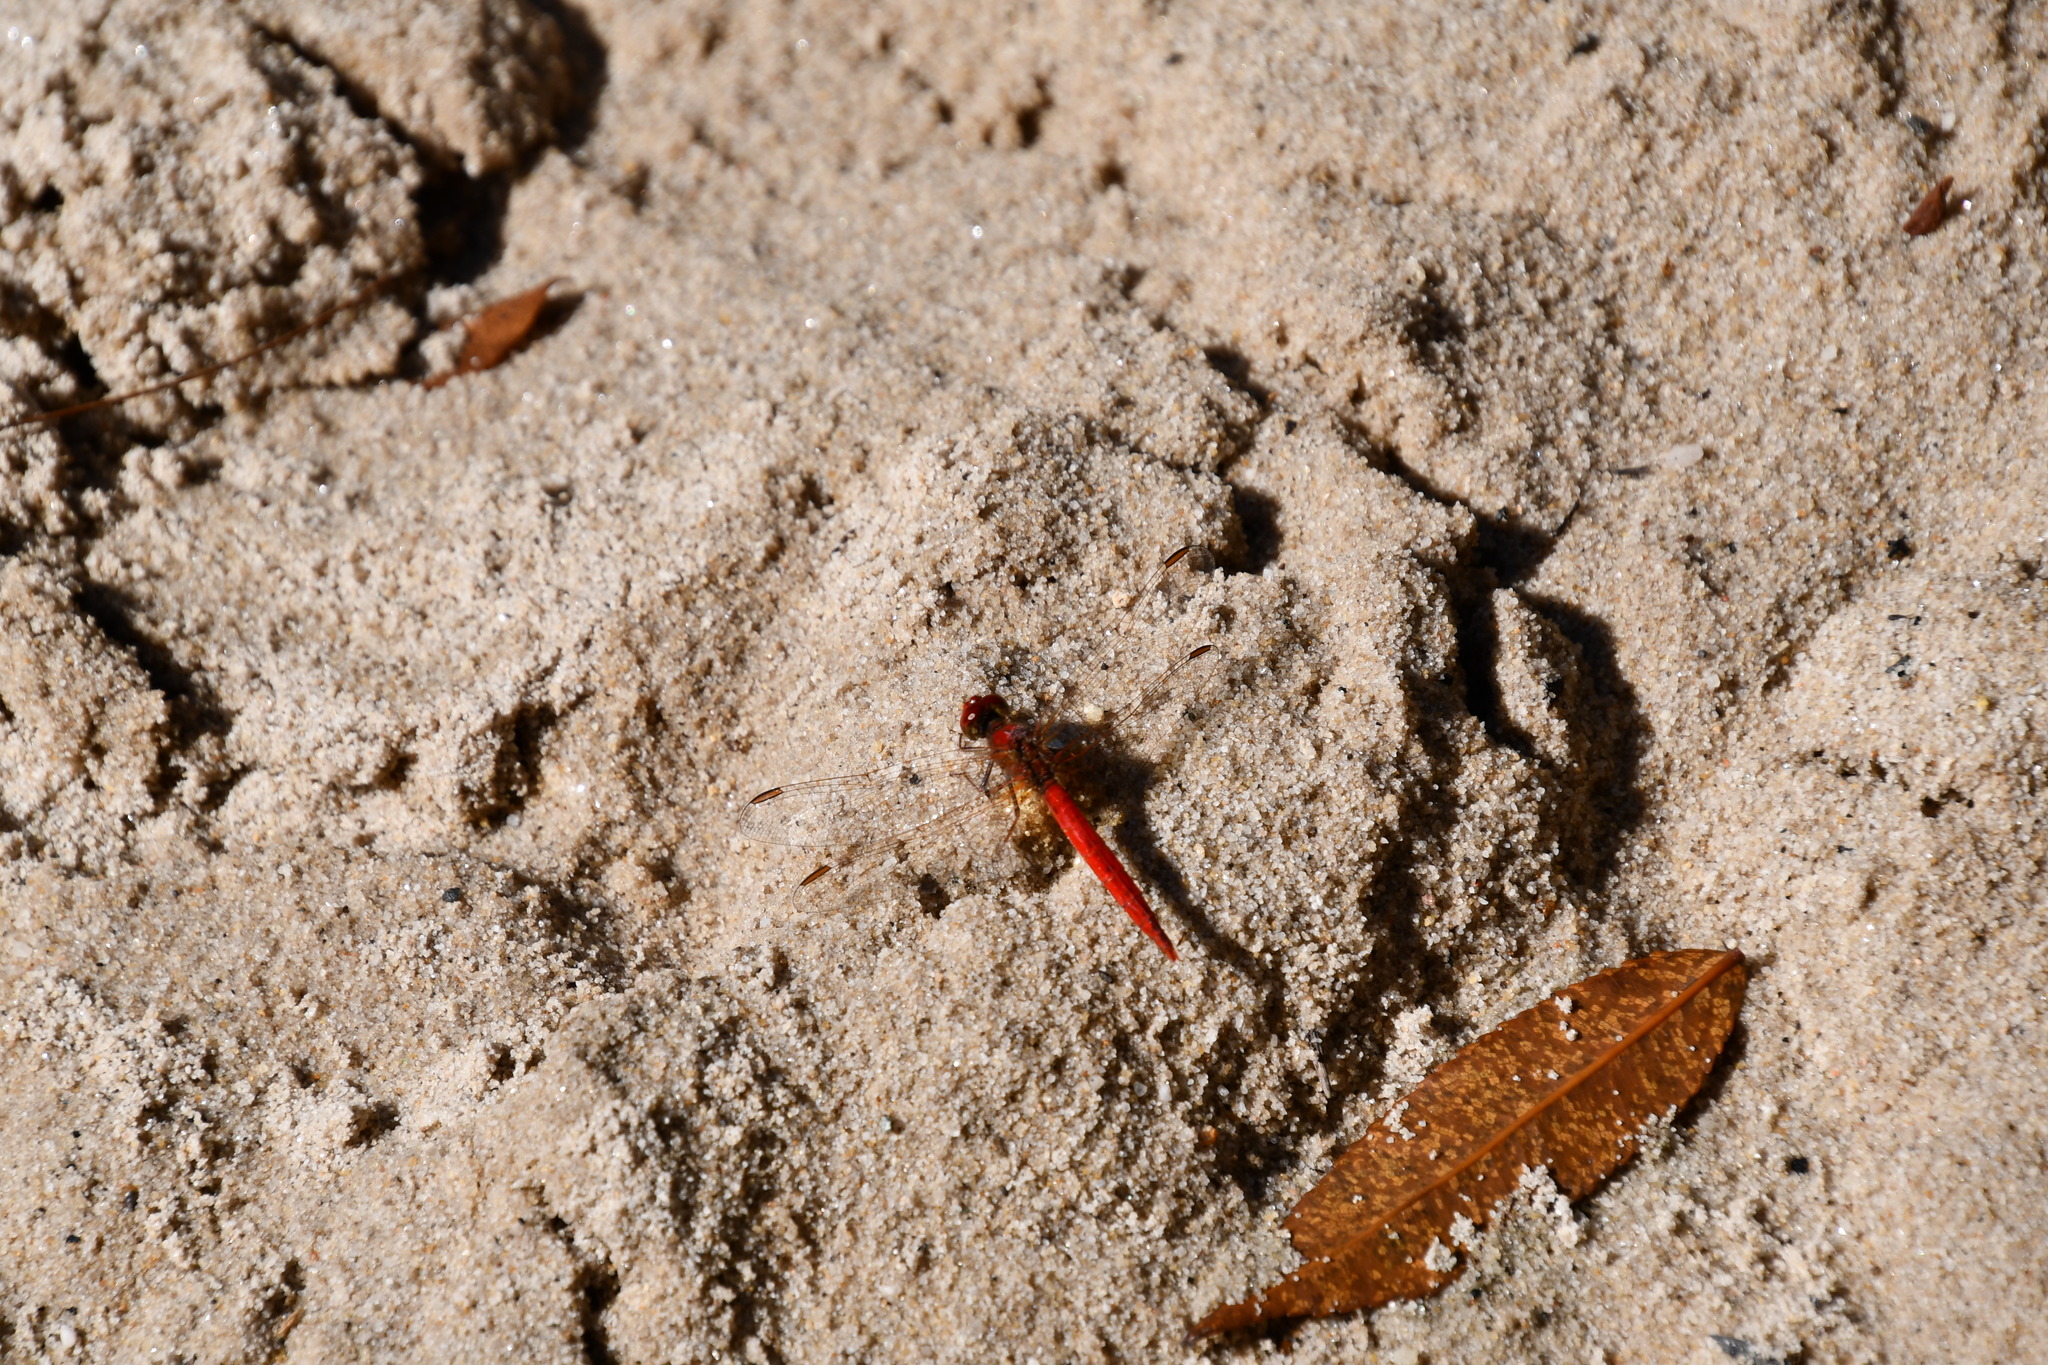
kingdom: Animalia
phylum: Arthropoda
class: Insecta
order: Odonata
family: Libellulidae
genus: Diplacodes
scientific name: Diplacodes haematodes
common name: Scarlet percher
